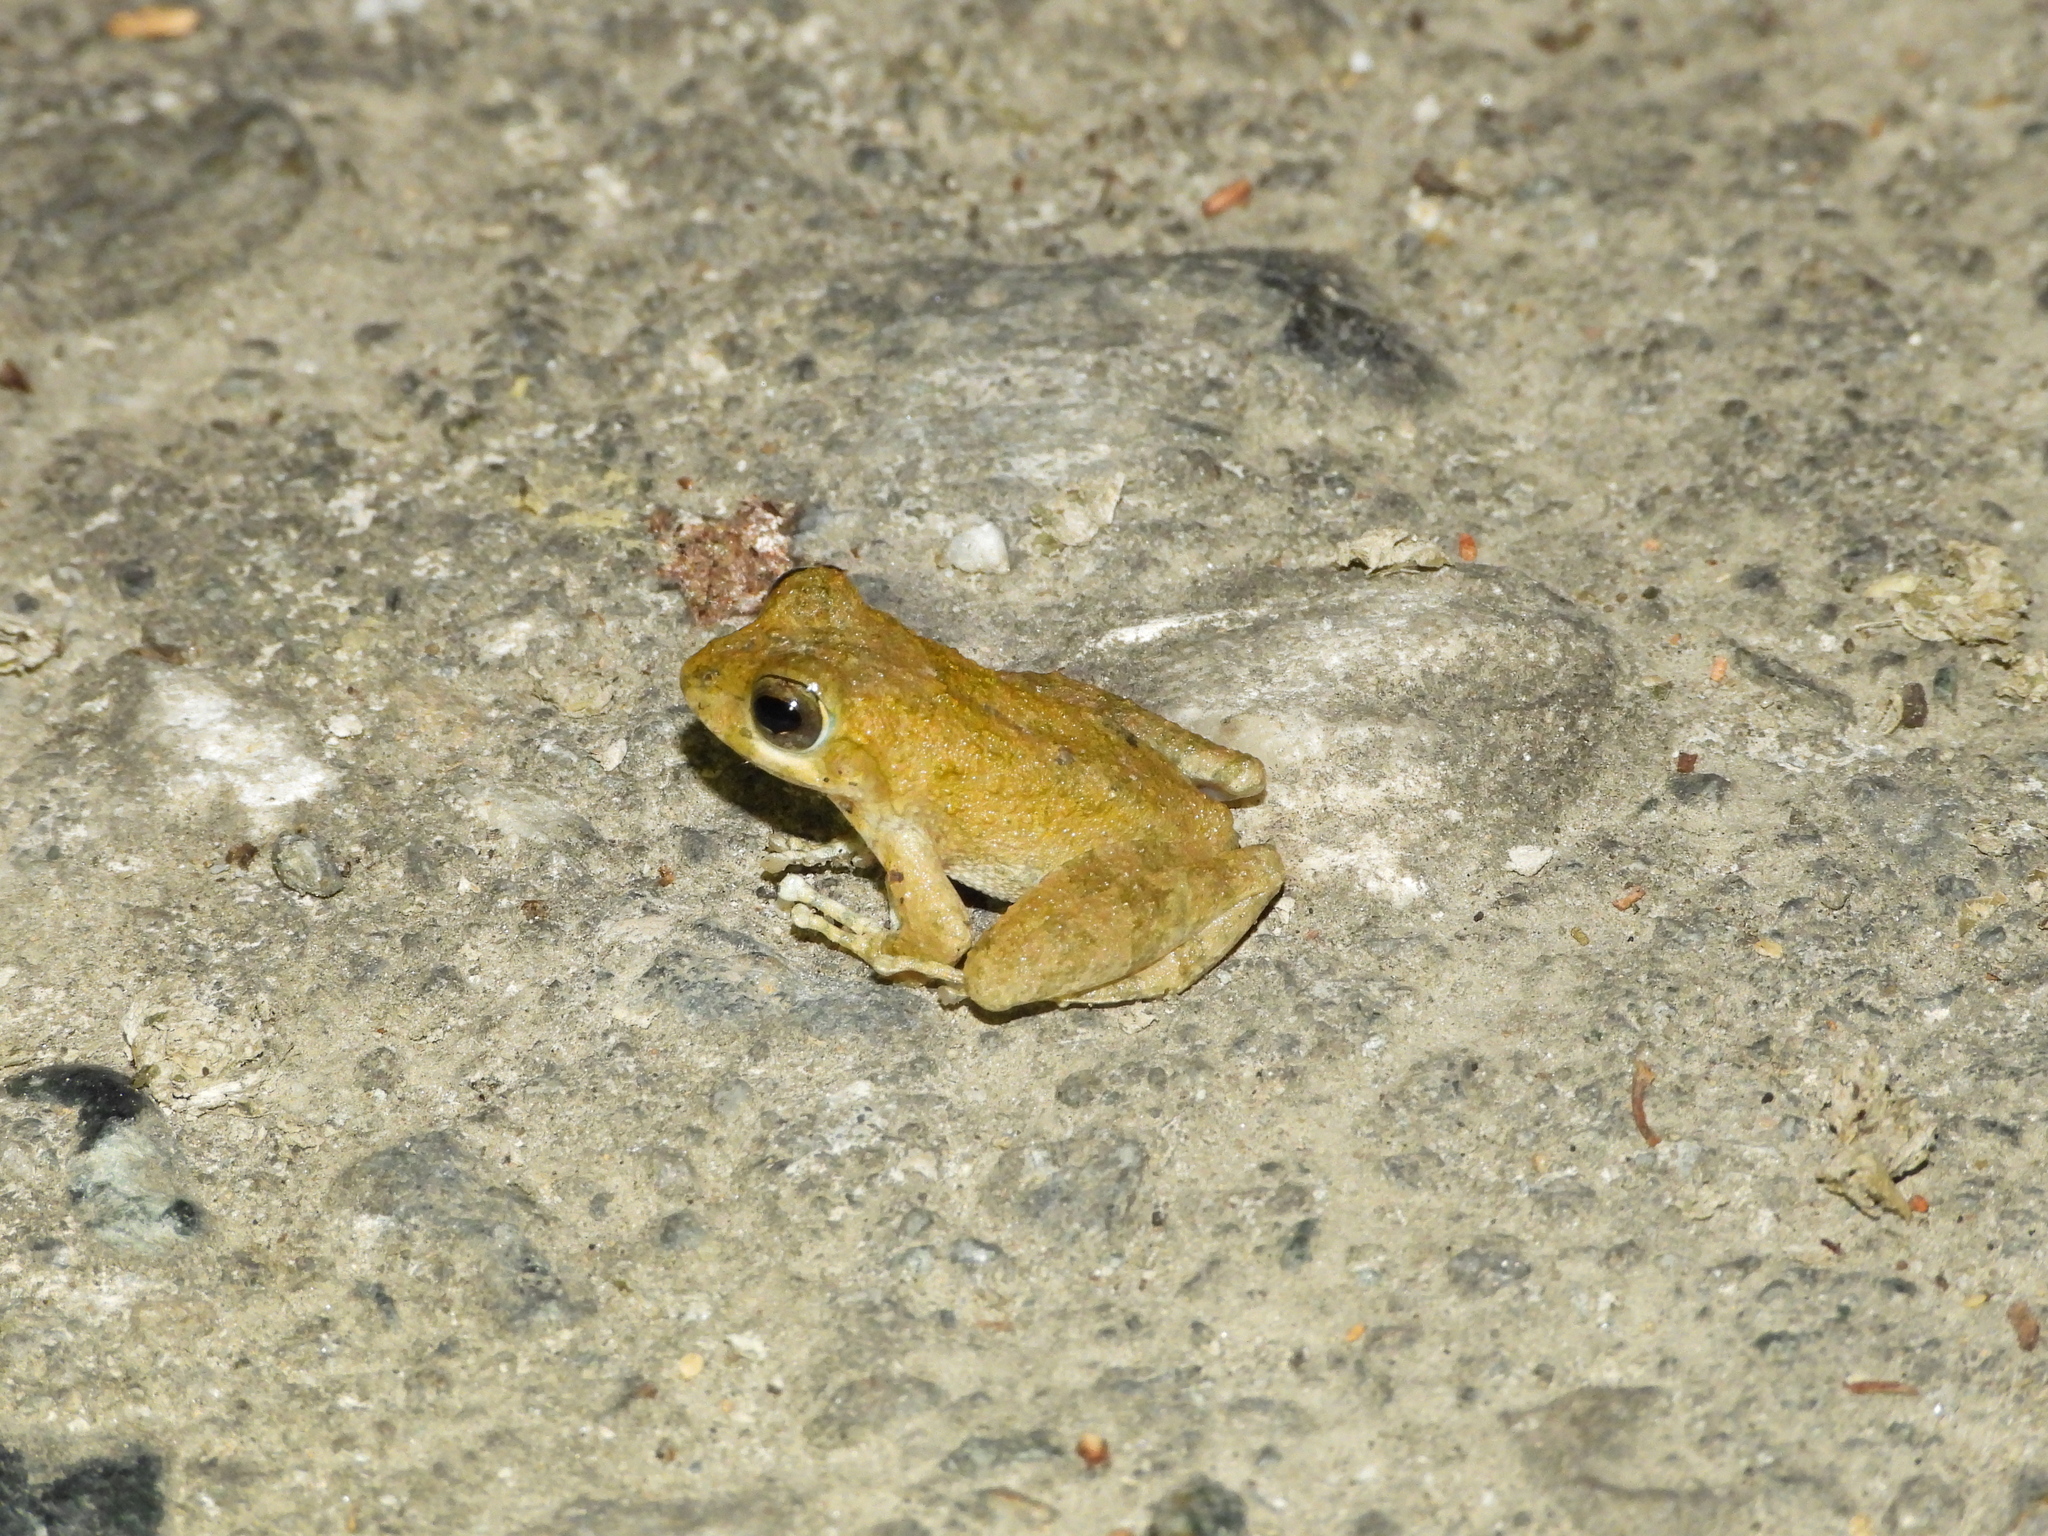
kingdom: Animalia
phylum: Chordata
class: Amphibia
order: Anura
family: Rhacophoridae
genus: Buergeria
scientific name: Buergeria otai
